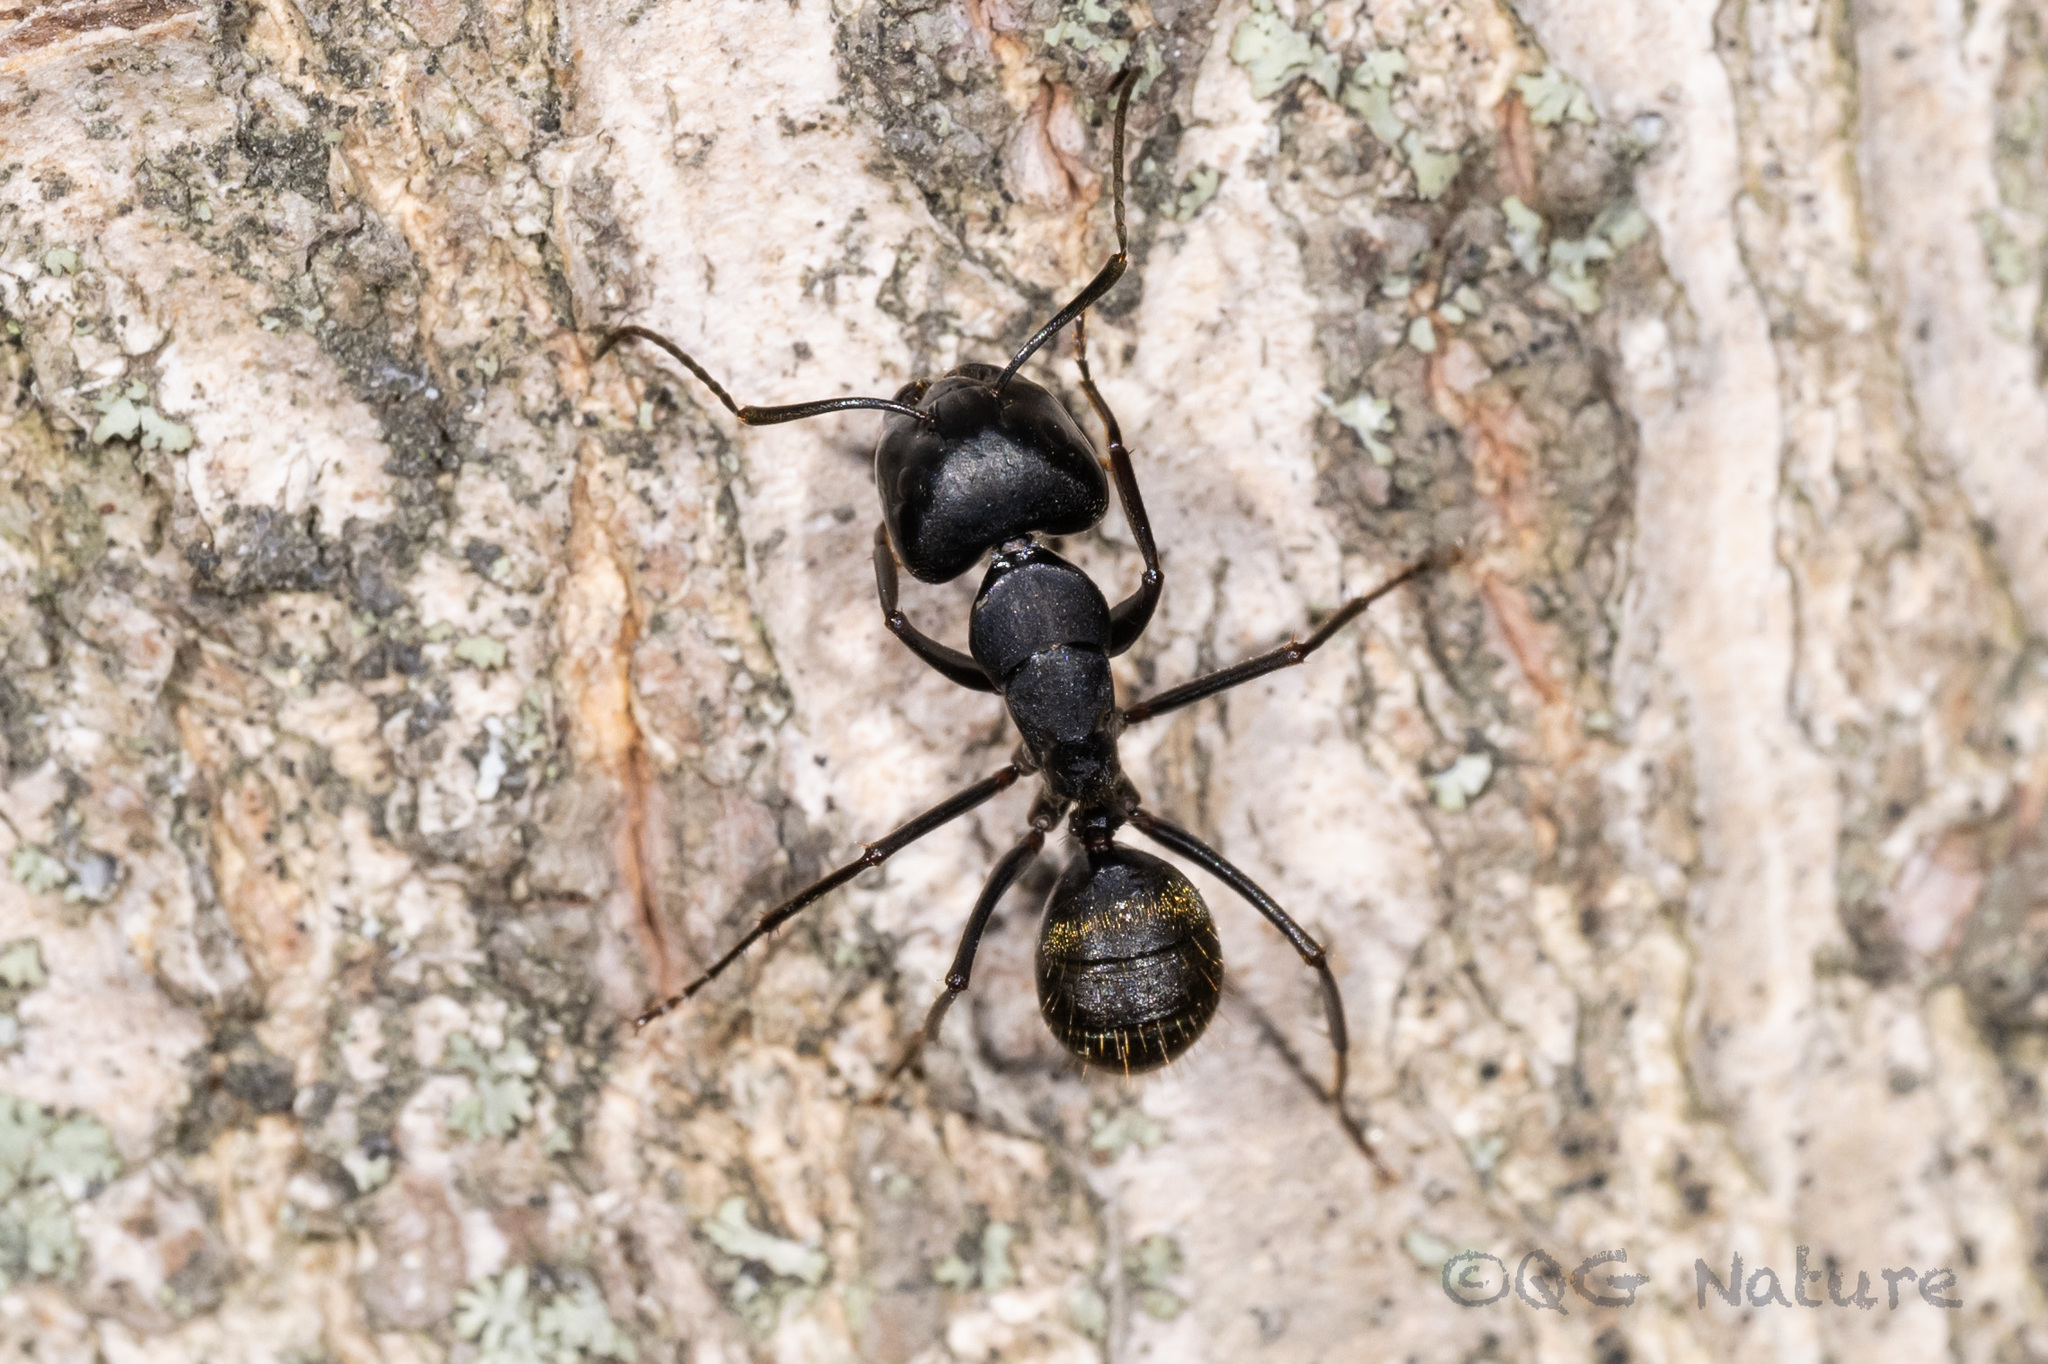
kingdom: Animalia
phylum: Arthropoda
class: Insecta
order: Hymenoptera
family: Formicidae
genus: Camponotus
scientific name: Camponotus japonicus
